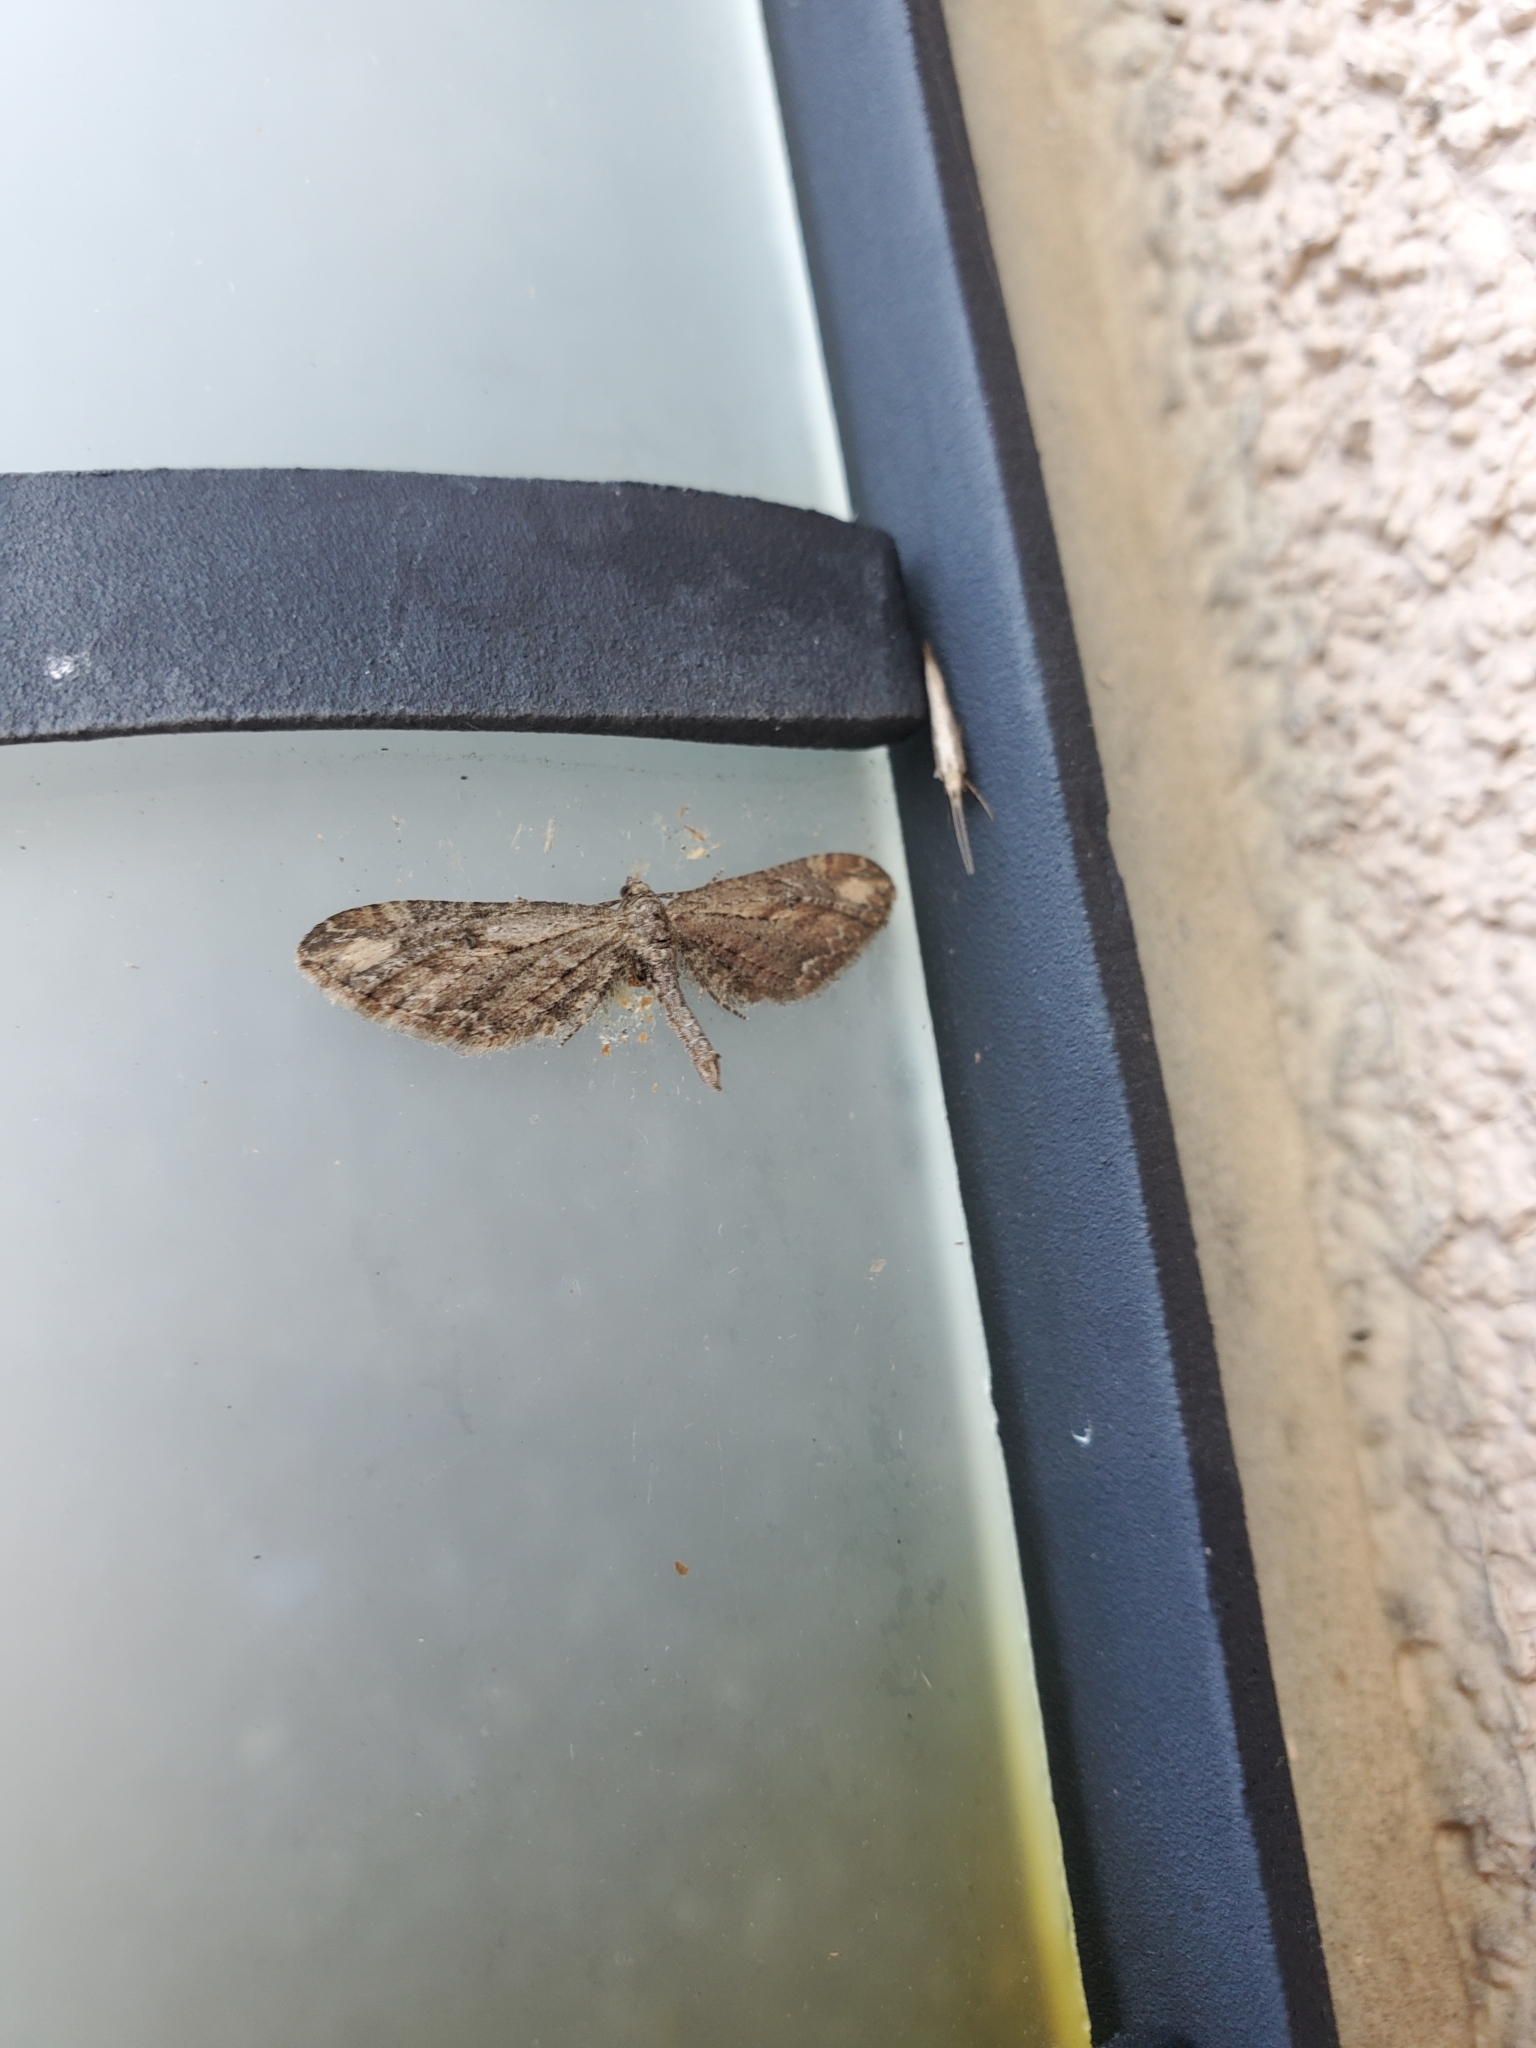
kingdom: Animalia
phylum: Arthropoda
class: Insecta
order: Lepidoptera
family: Geometridae
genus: Eupithecia
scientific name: Eupithecia subapicata
